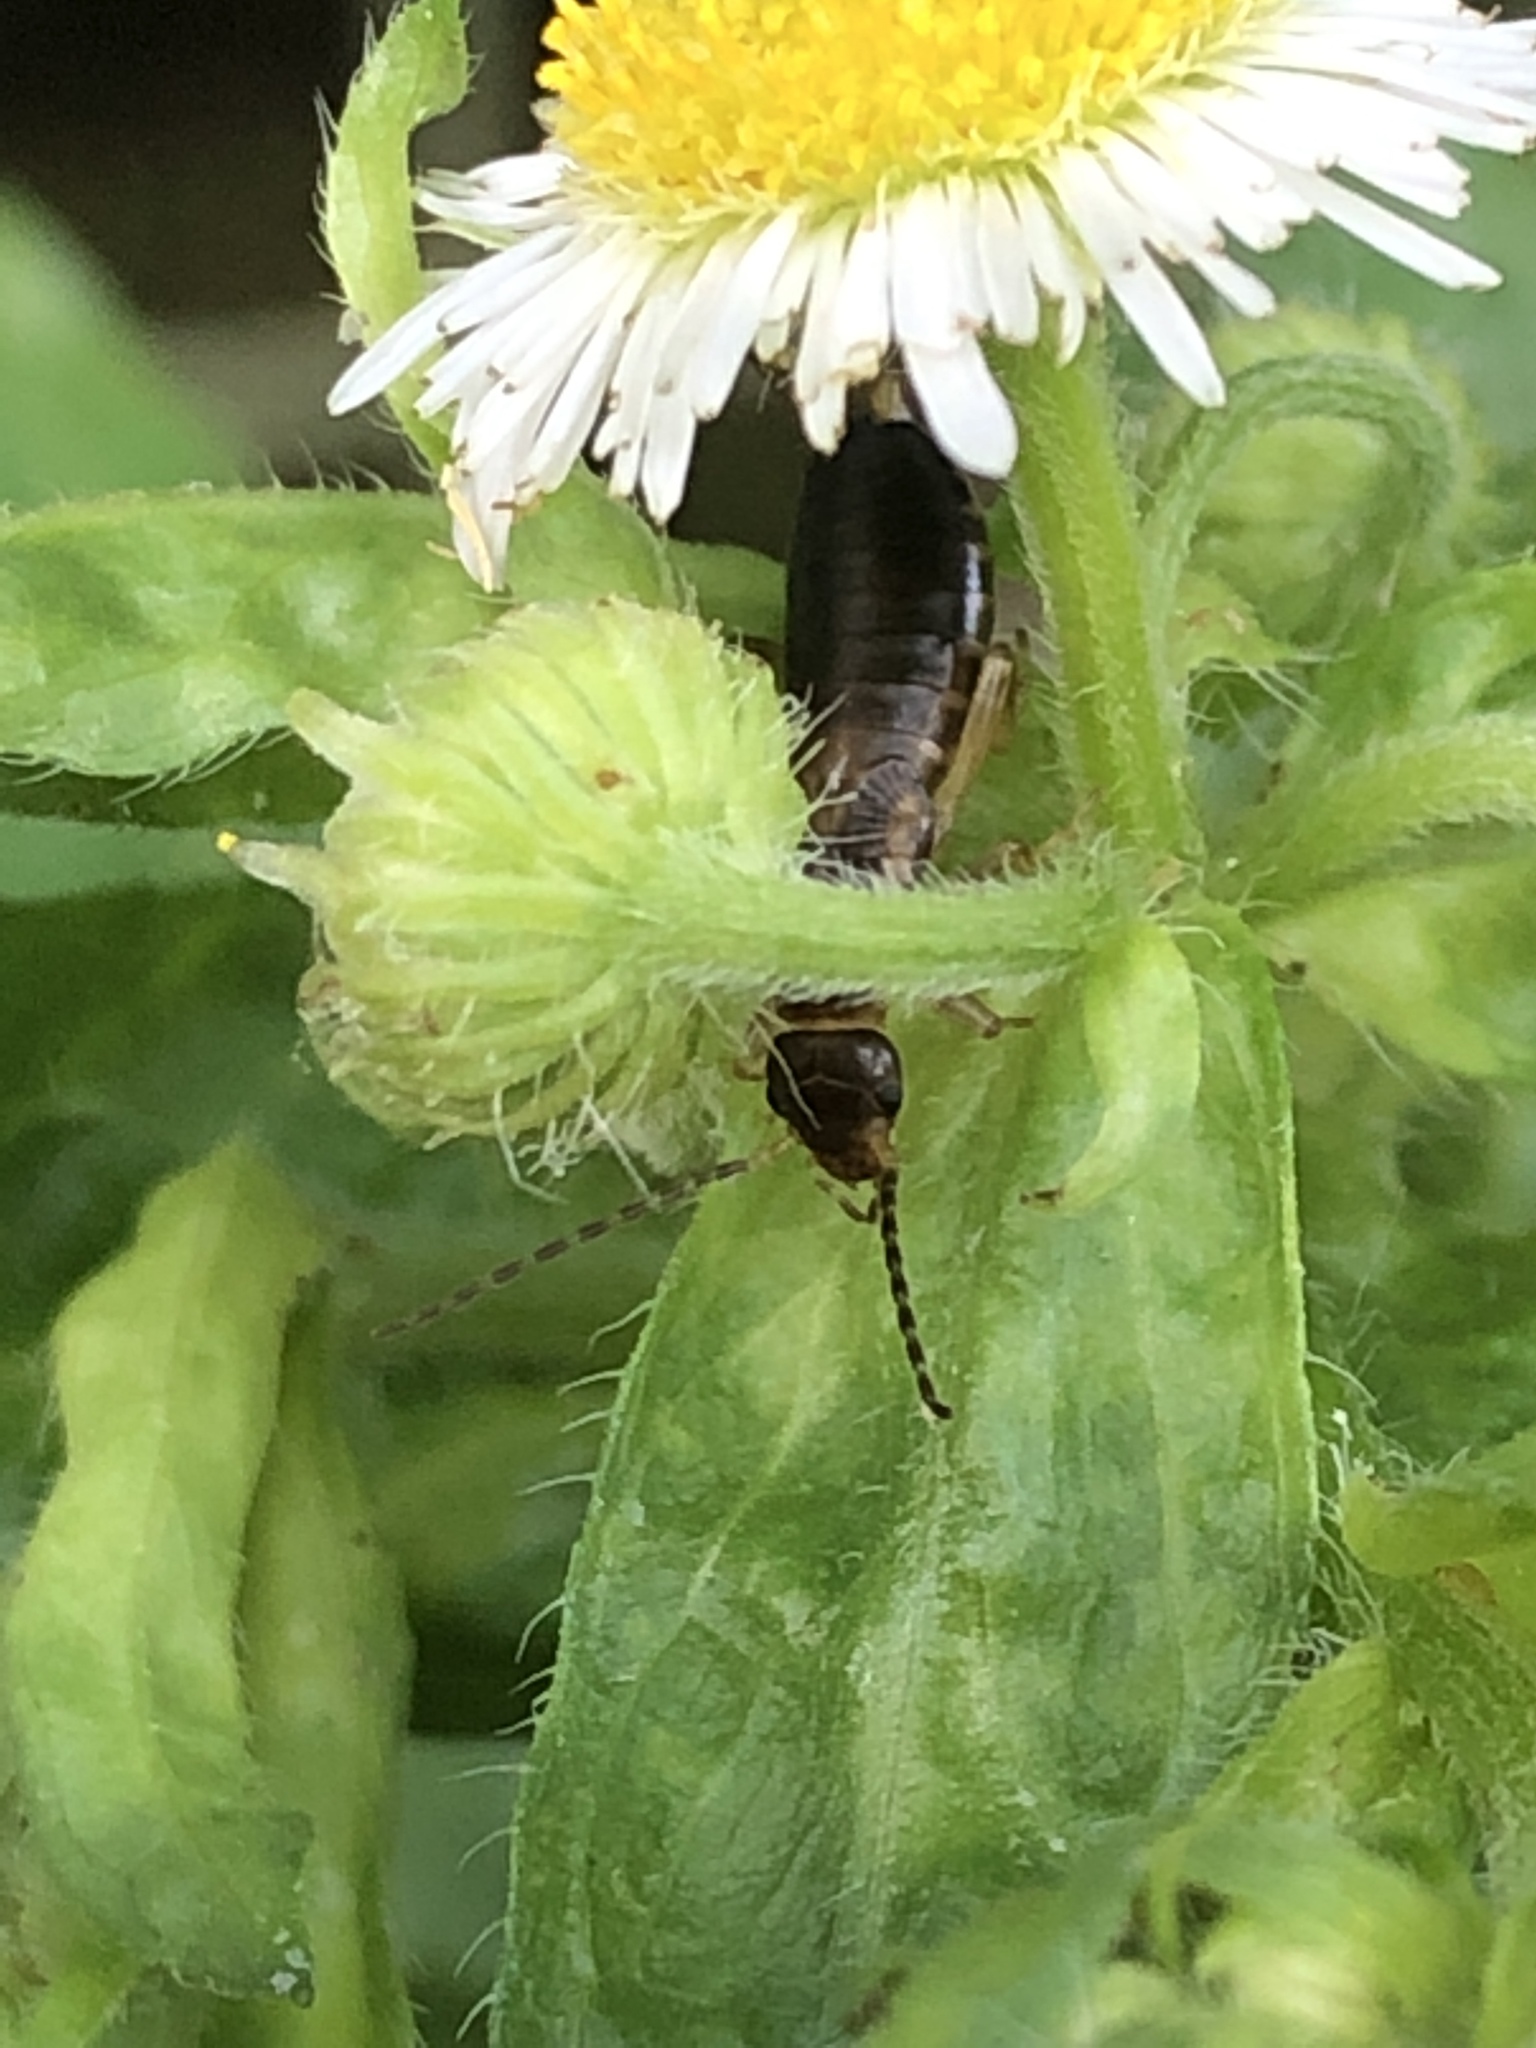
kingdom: Animalia
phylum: Arthropoda
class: Insecta
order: Dermaptera
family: Forficulidae
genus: Forficula
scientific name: Forficula
